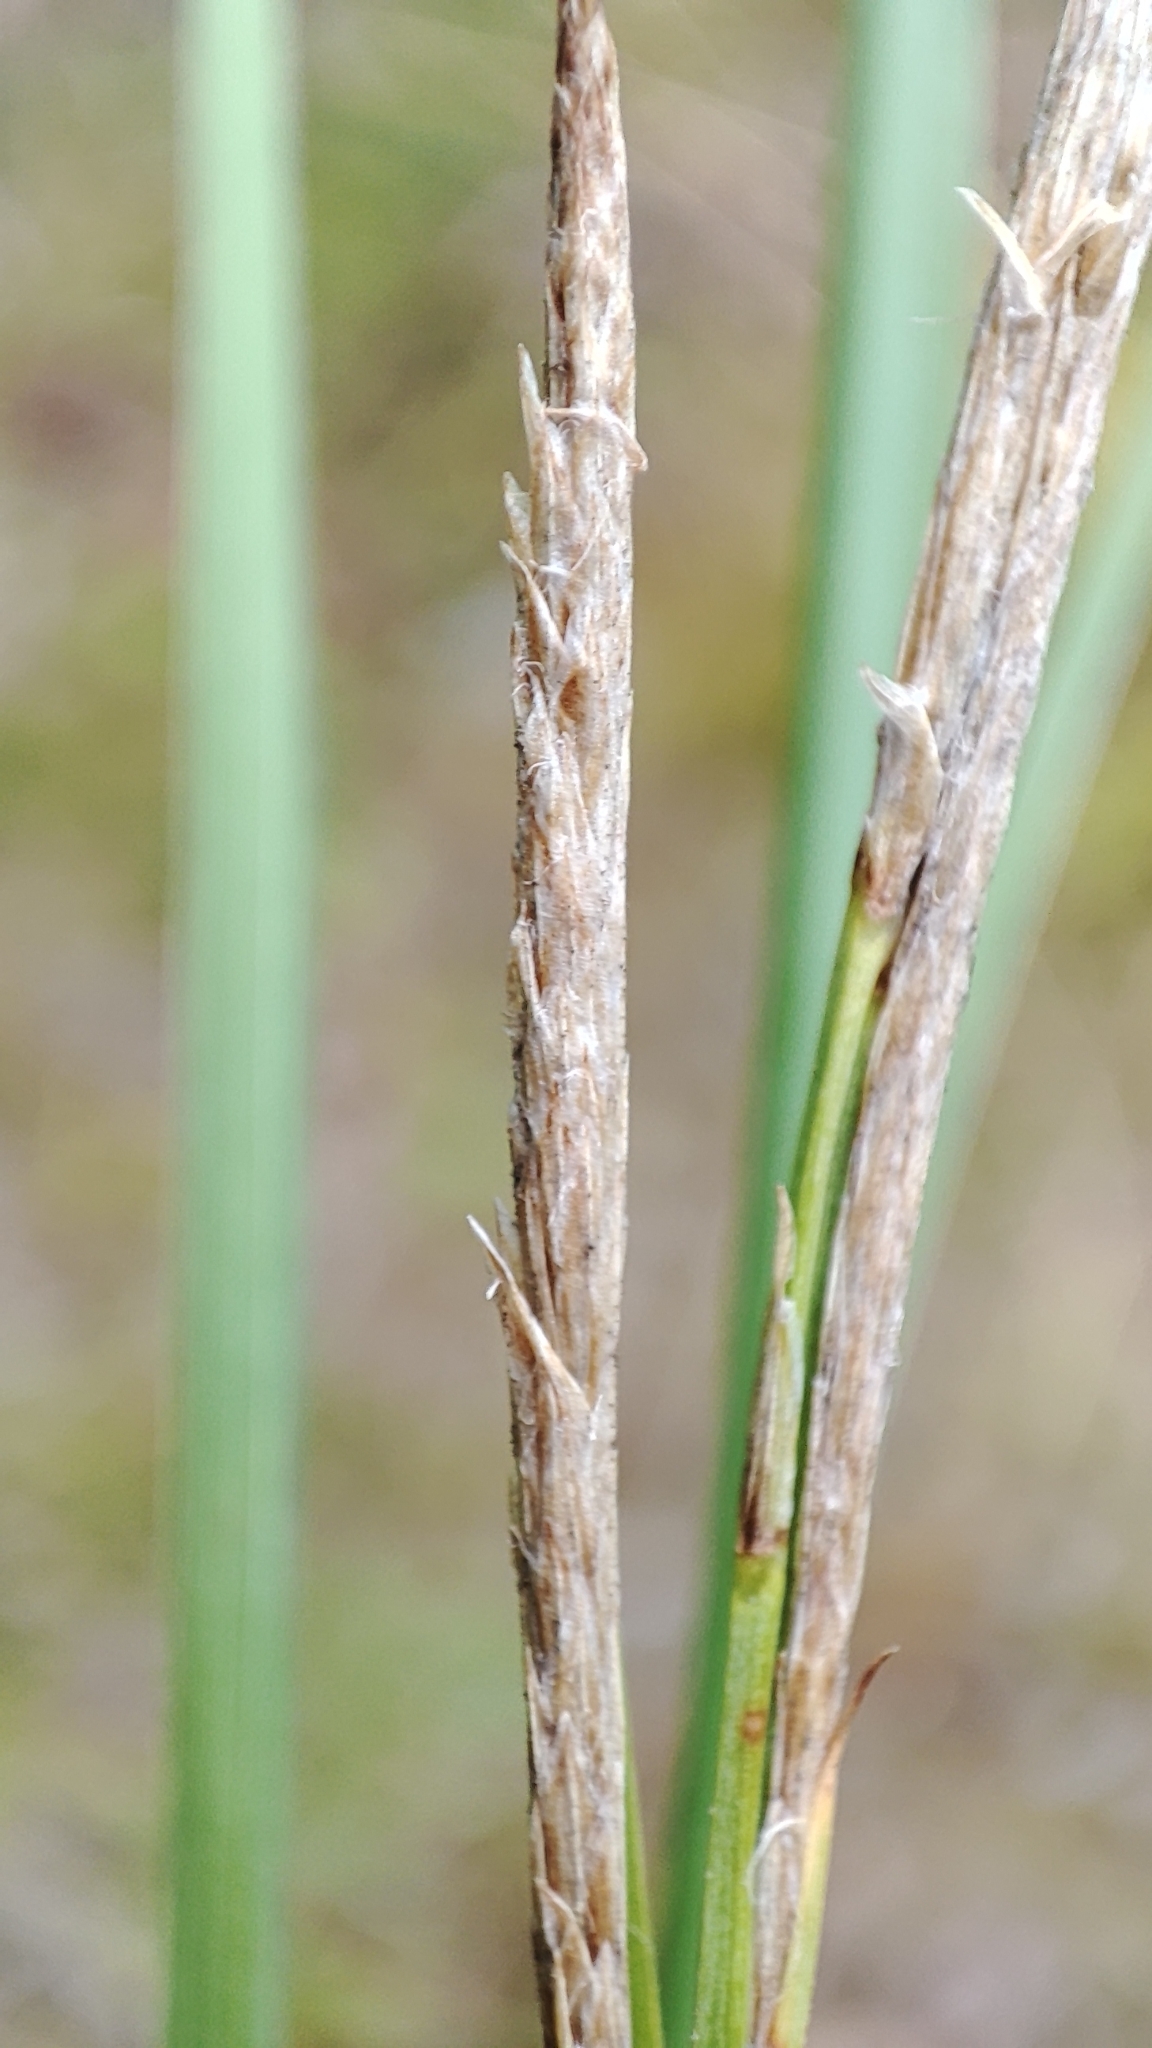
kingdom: Plantae
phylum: Tracheophyta
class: Liliopsida
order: Poales
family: Cyperaceae
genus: Carex
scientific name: Carex rostrata
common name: Bottle sedge
